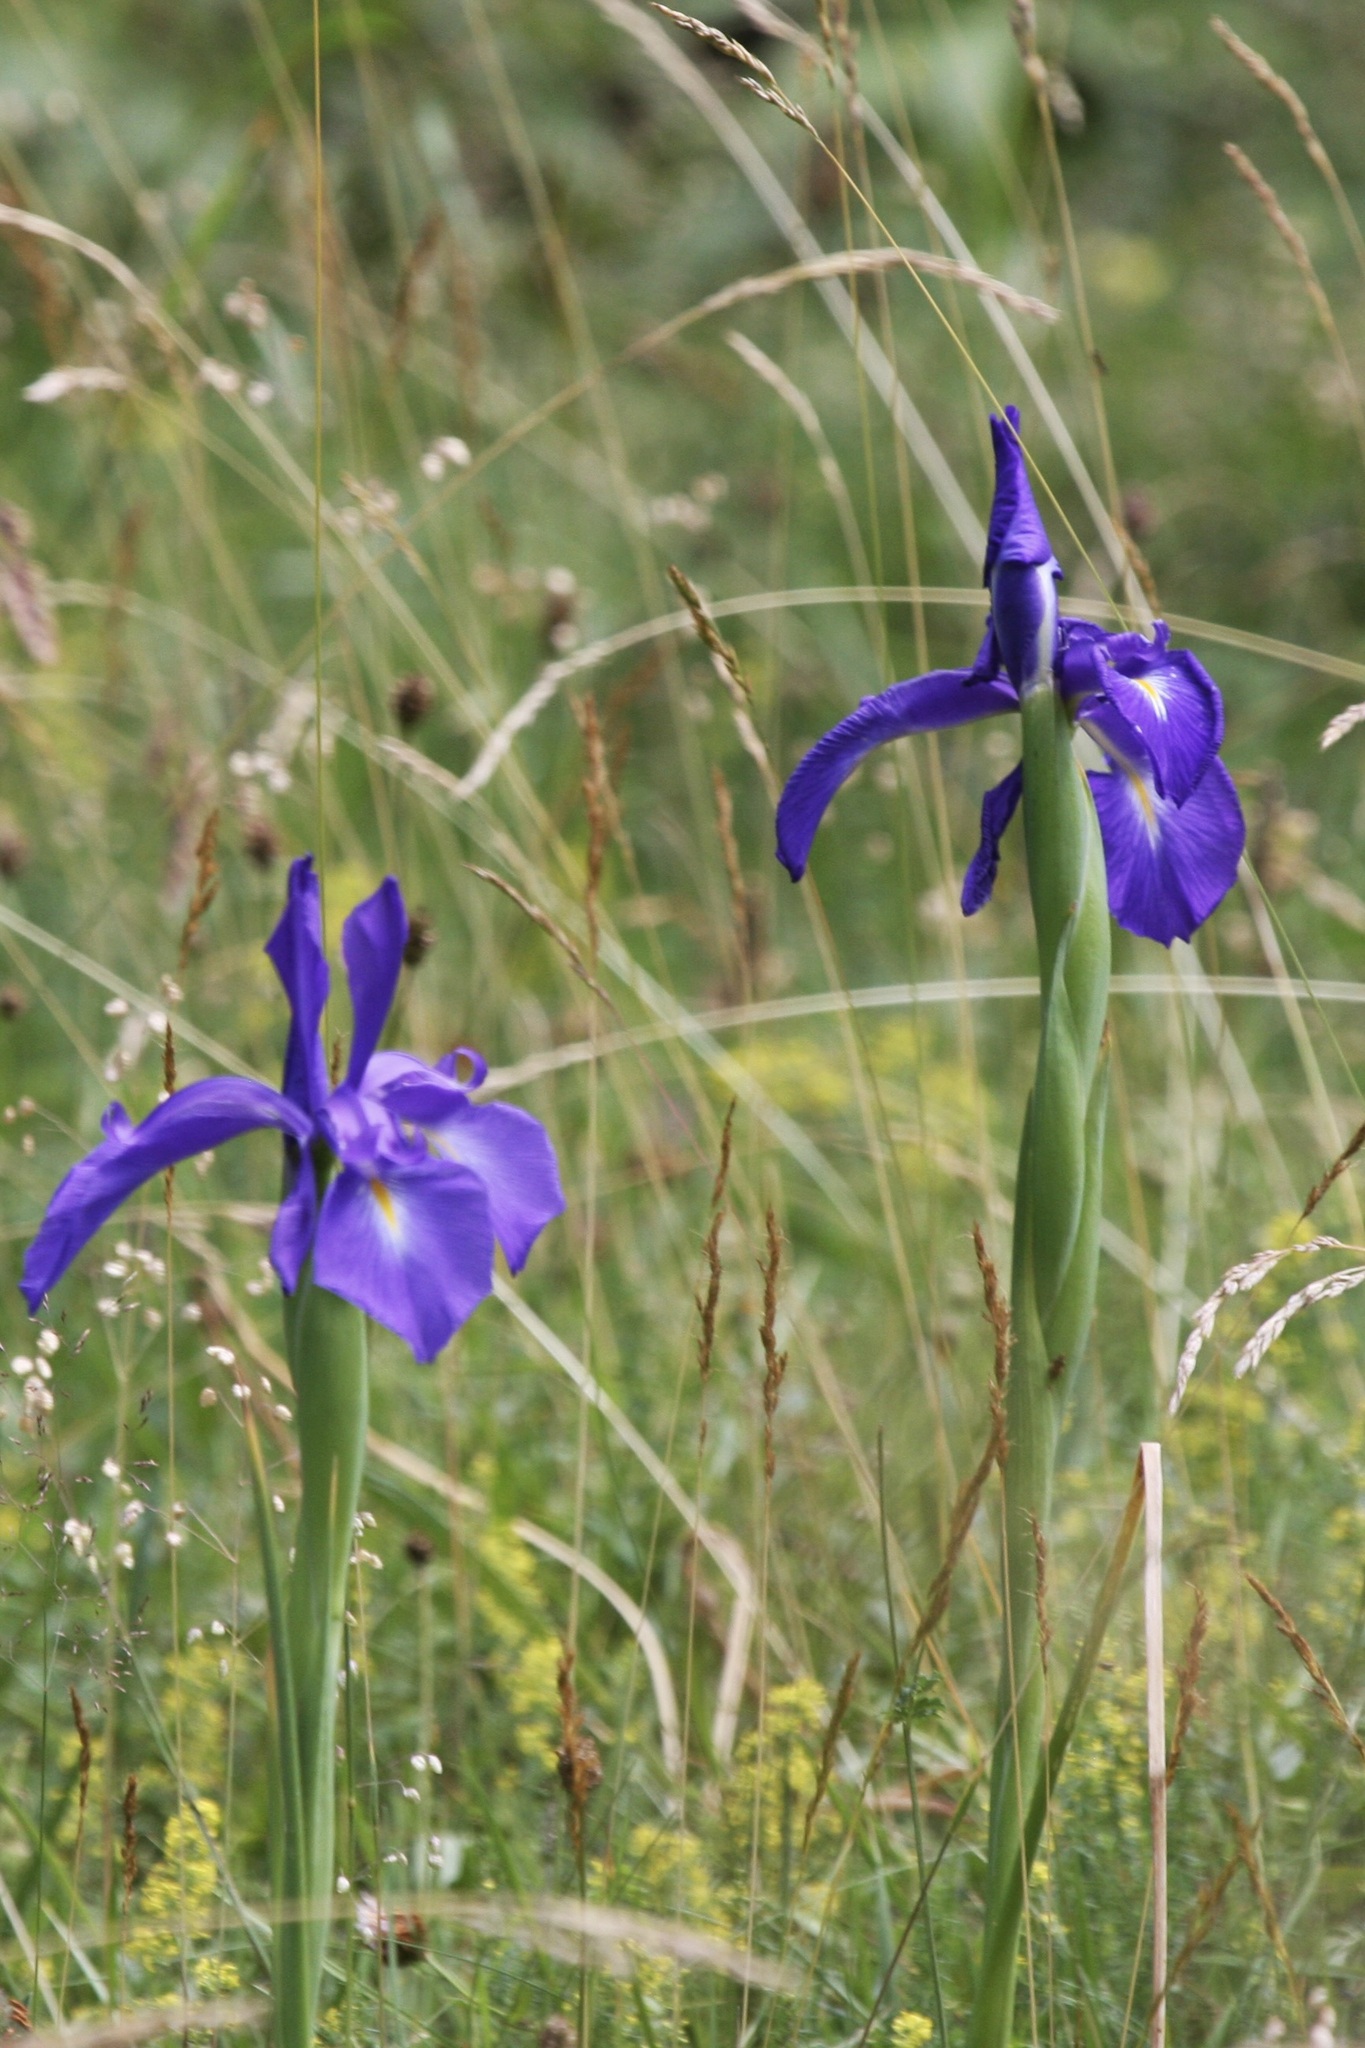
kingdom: Plantae
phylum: Tracheophyta
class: Liliopsida
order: Asparagales
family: Iridaceae
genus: Iris
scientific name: Iris
